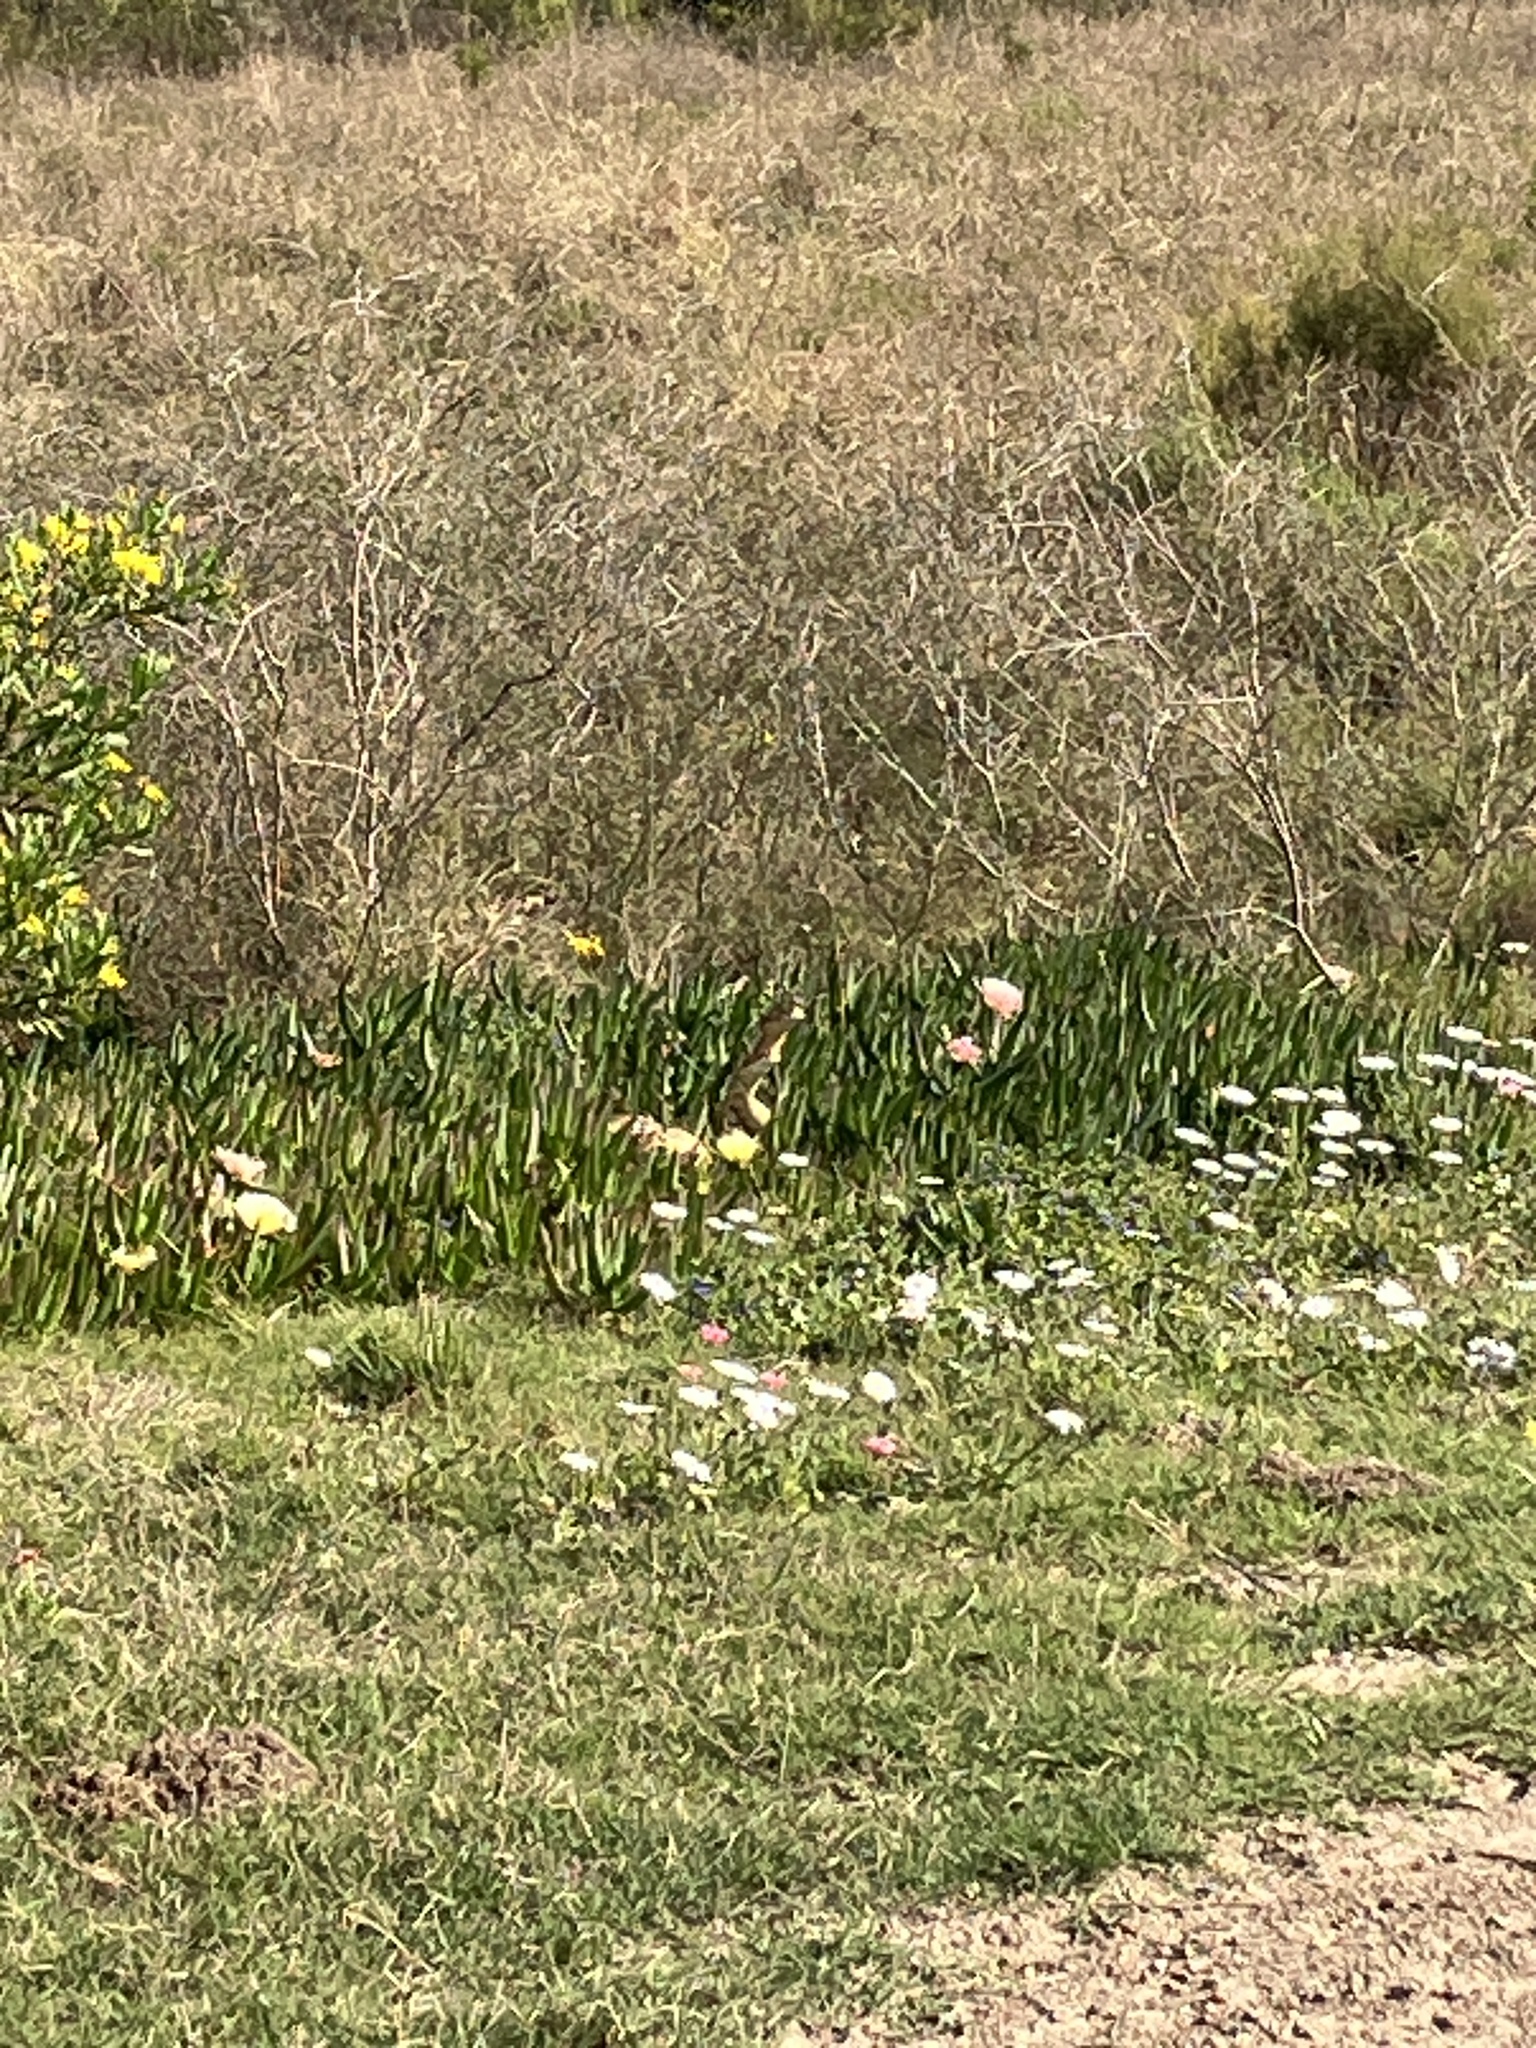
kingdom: Animalia
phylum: Chordata
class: Squamata
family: Viperidae
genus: Bitis
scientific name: Bitis arietans
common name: Puff adder
